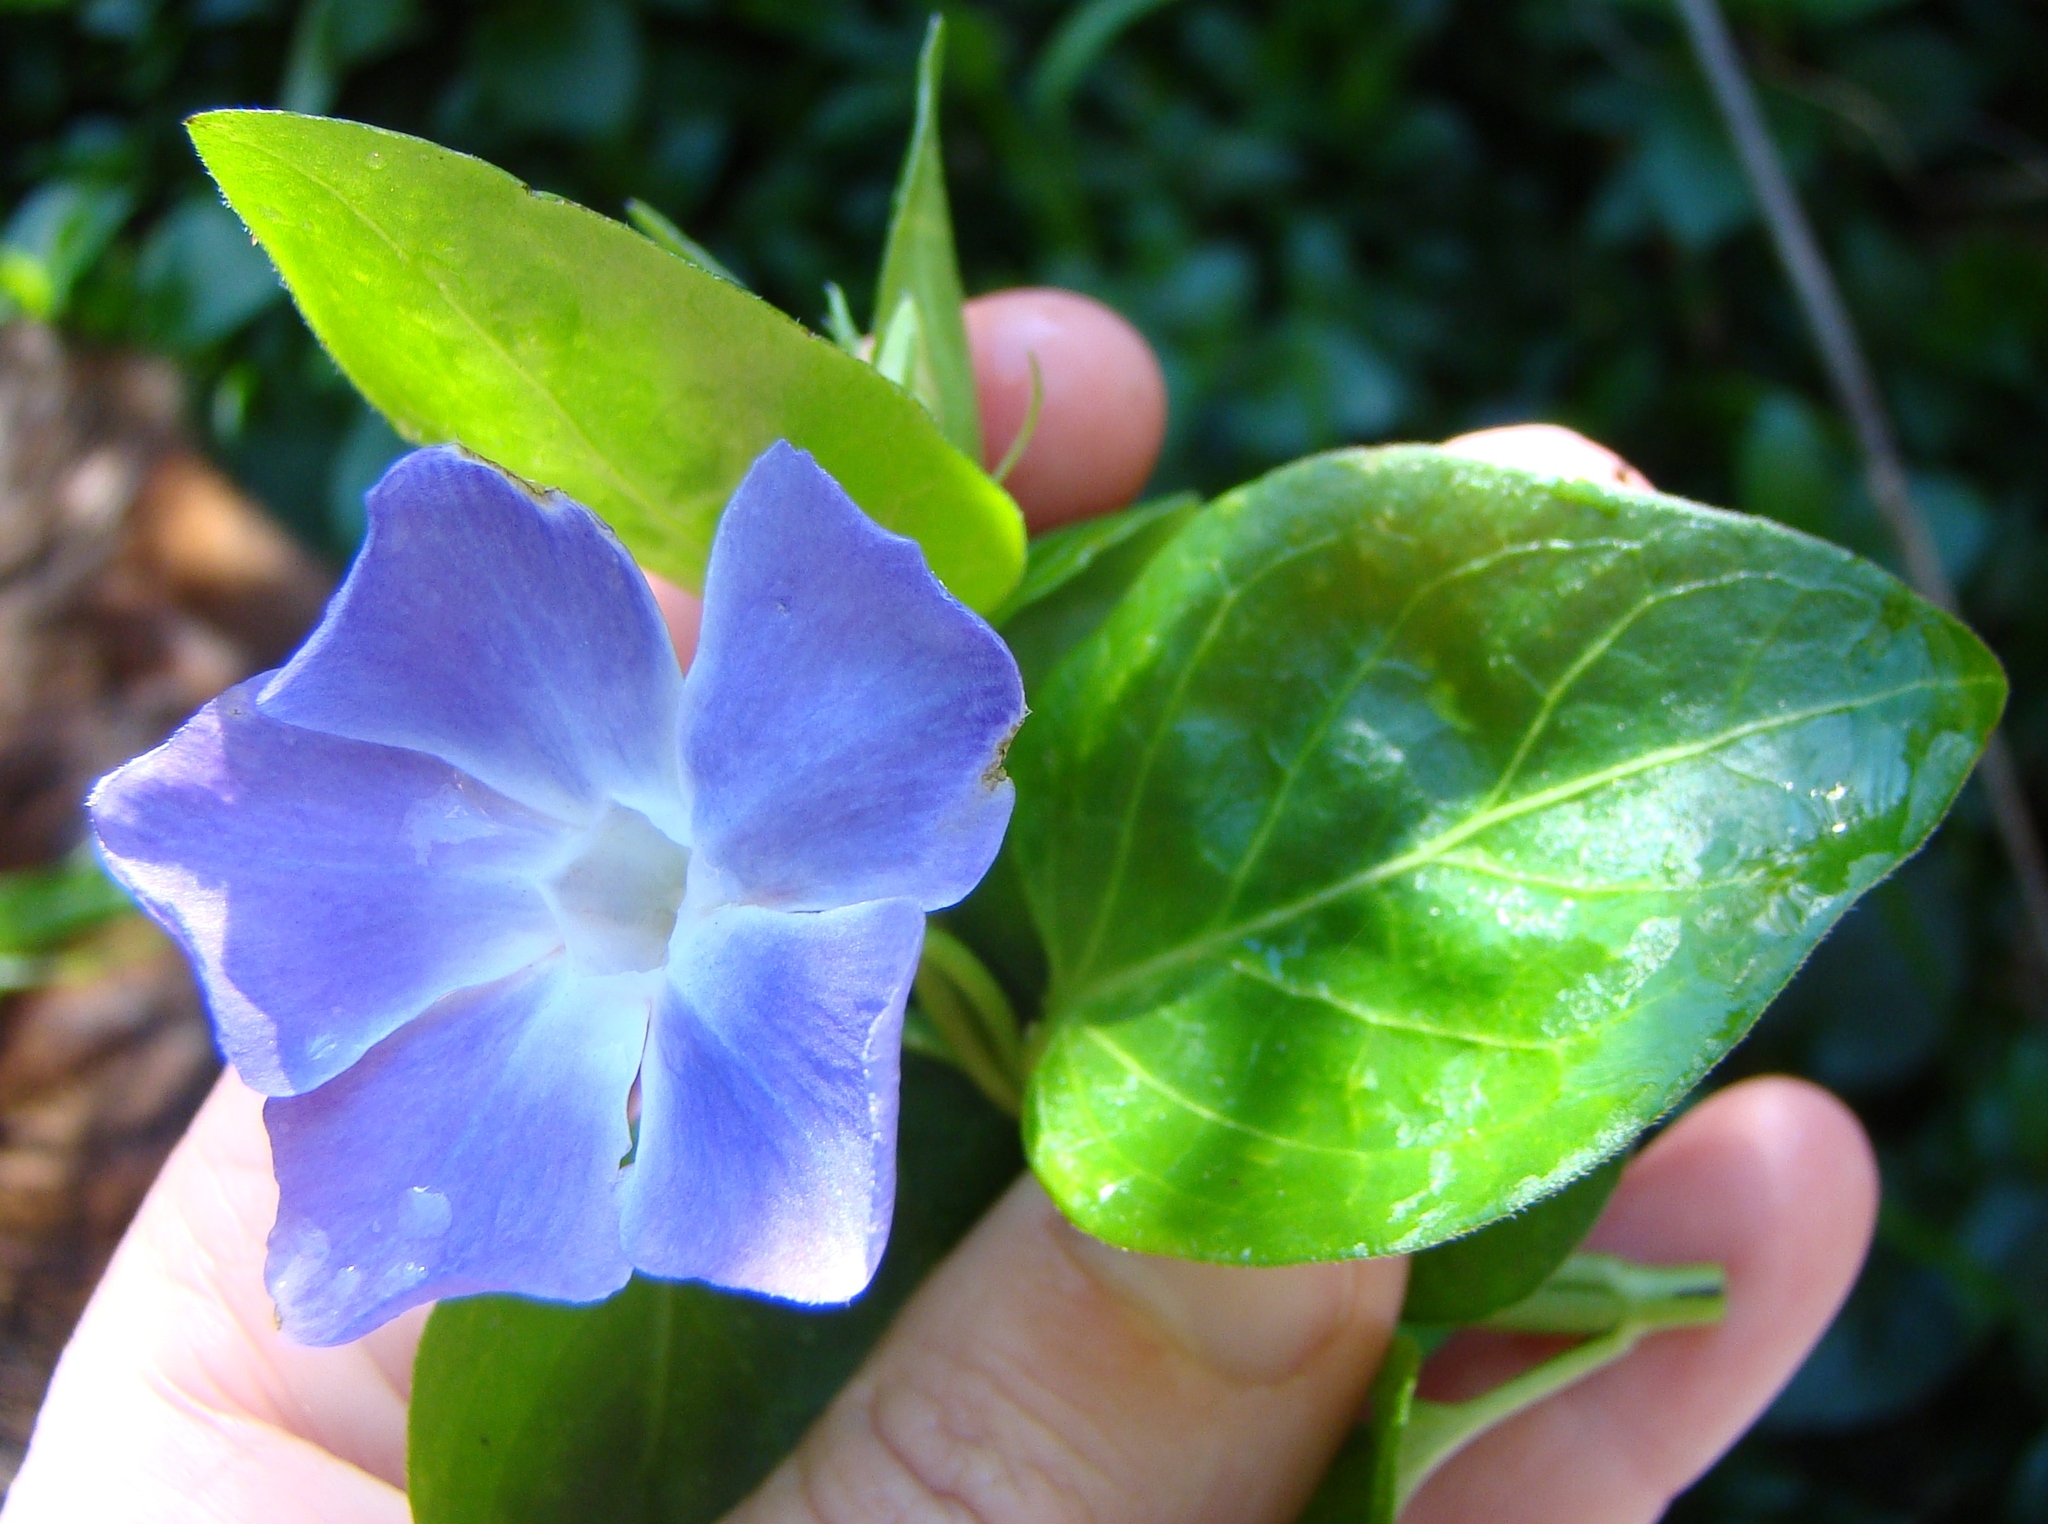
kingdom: Plantae
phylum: Tracheophyta
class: Magnoliopsida
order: Gentianales
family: Apocynaceae
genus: Vinca
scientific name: Vinca major
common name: Greater periwinkle
